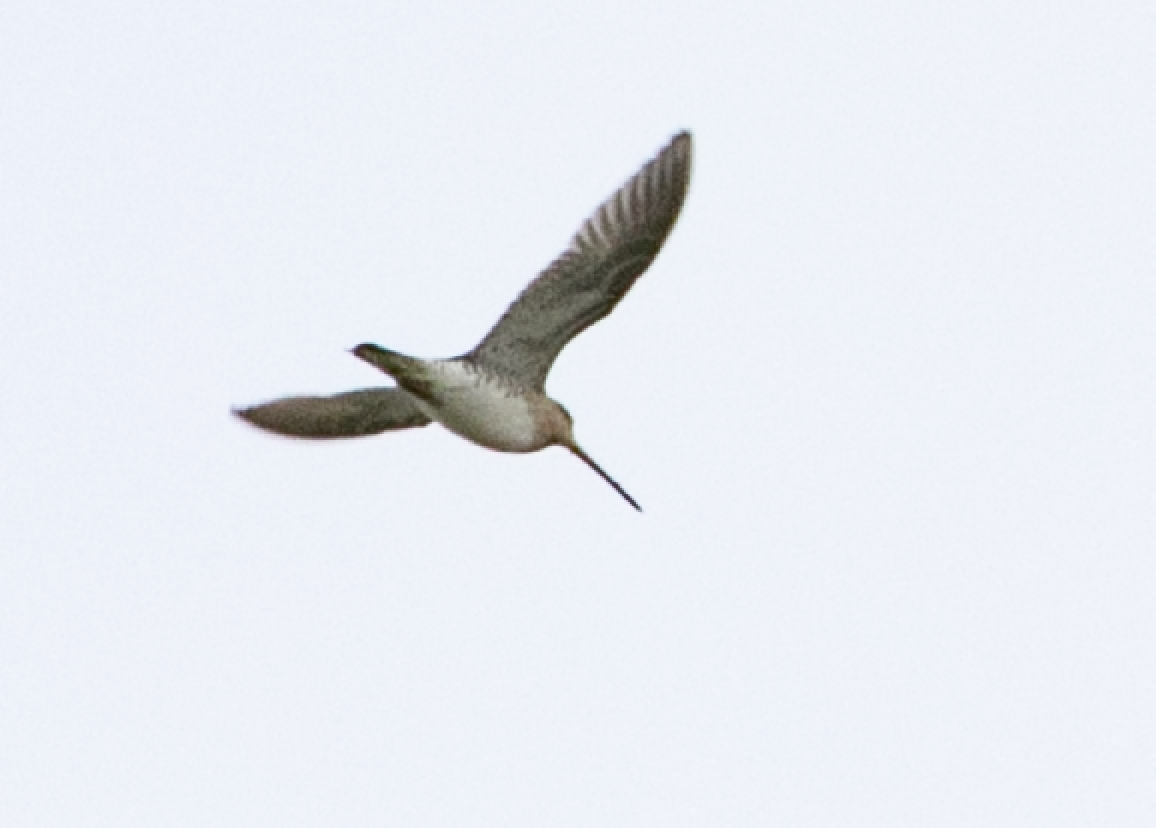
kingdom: Animalia
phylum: Chordata
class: Aves
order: Charadriiformes
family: Scolopacidae
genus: Gallinago
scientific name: Gallinago gallinago
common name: Common snipe
